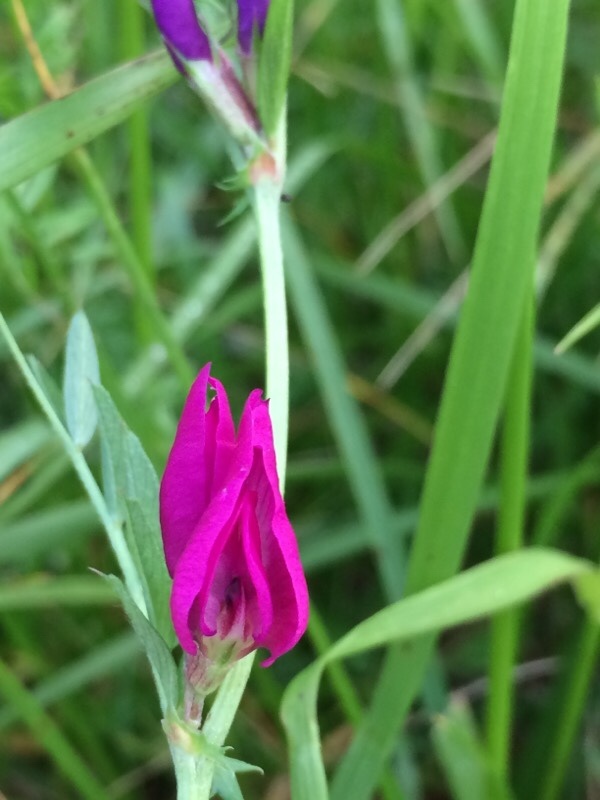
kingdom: Plantae
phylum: Tracheophyta
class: Magnoliopsida
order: Fabales
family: Fabaceae
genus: Vicia
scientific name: Vicia sativa
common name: Garden vetch
